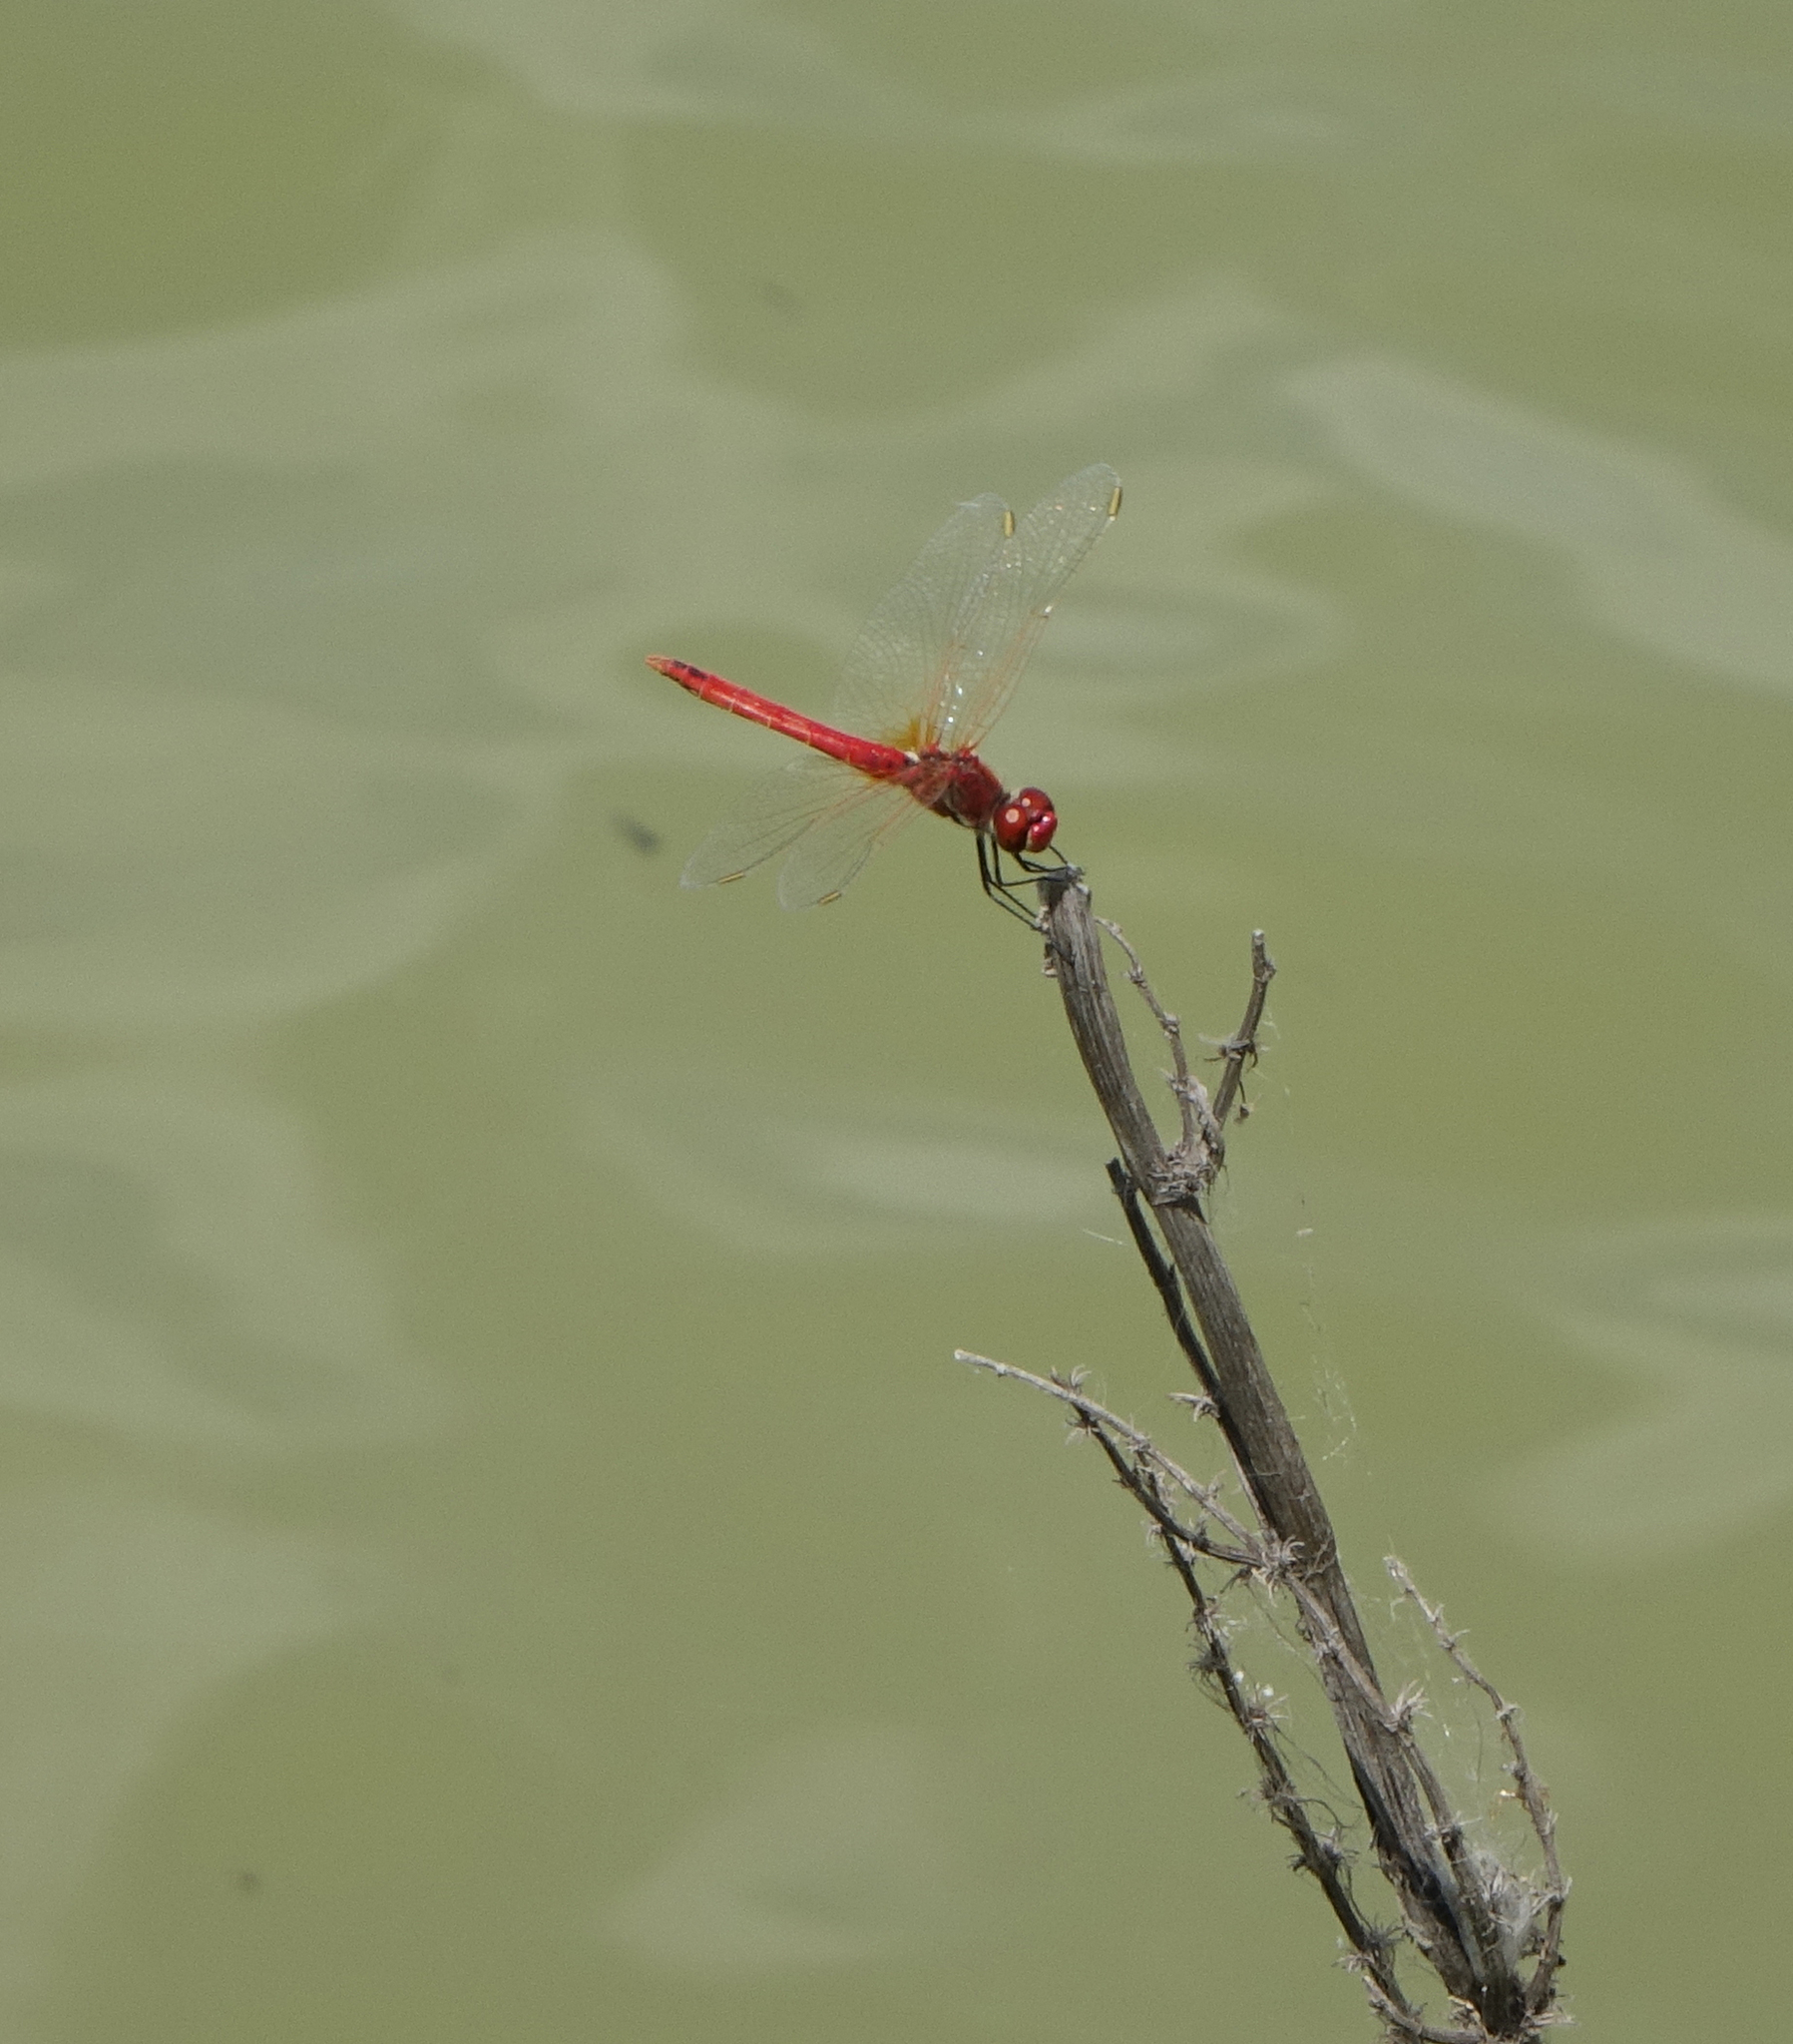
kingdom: Animalia
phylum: Arthropoda
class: Insecta
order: Odonata
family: Libellulidae
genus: Sympetrum
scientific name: Sympetrum fonscolombii
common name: Red-veined darter
